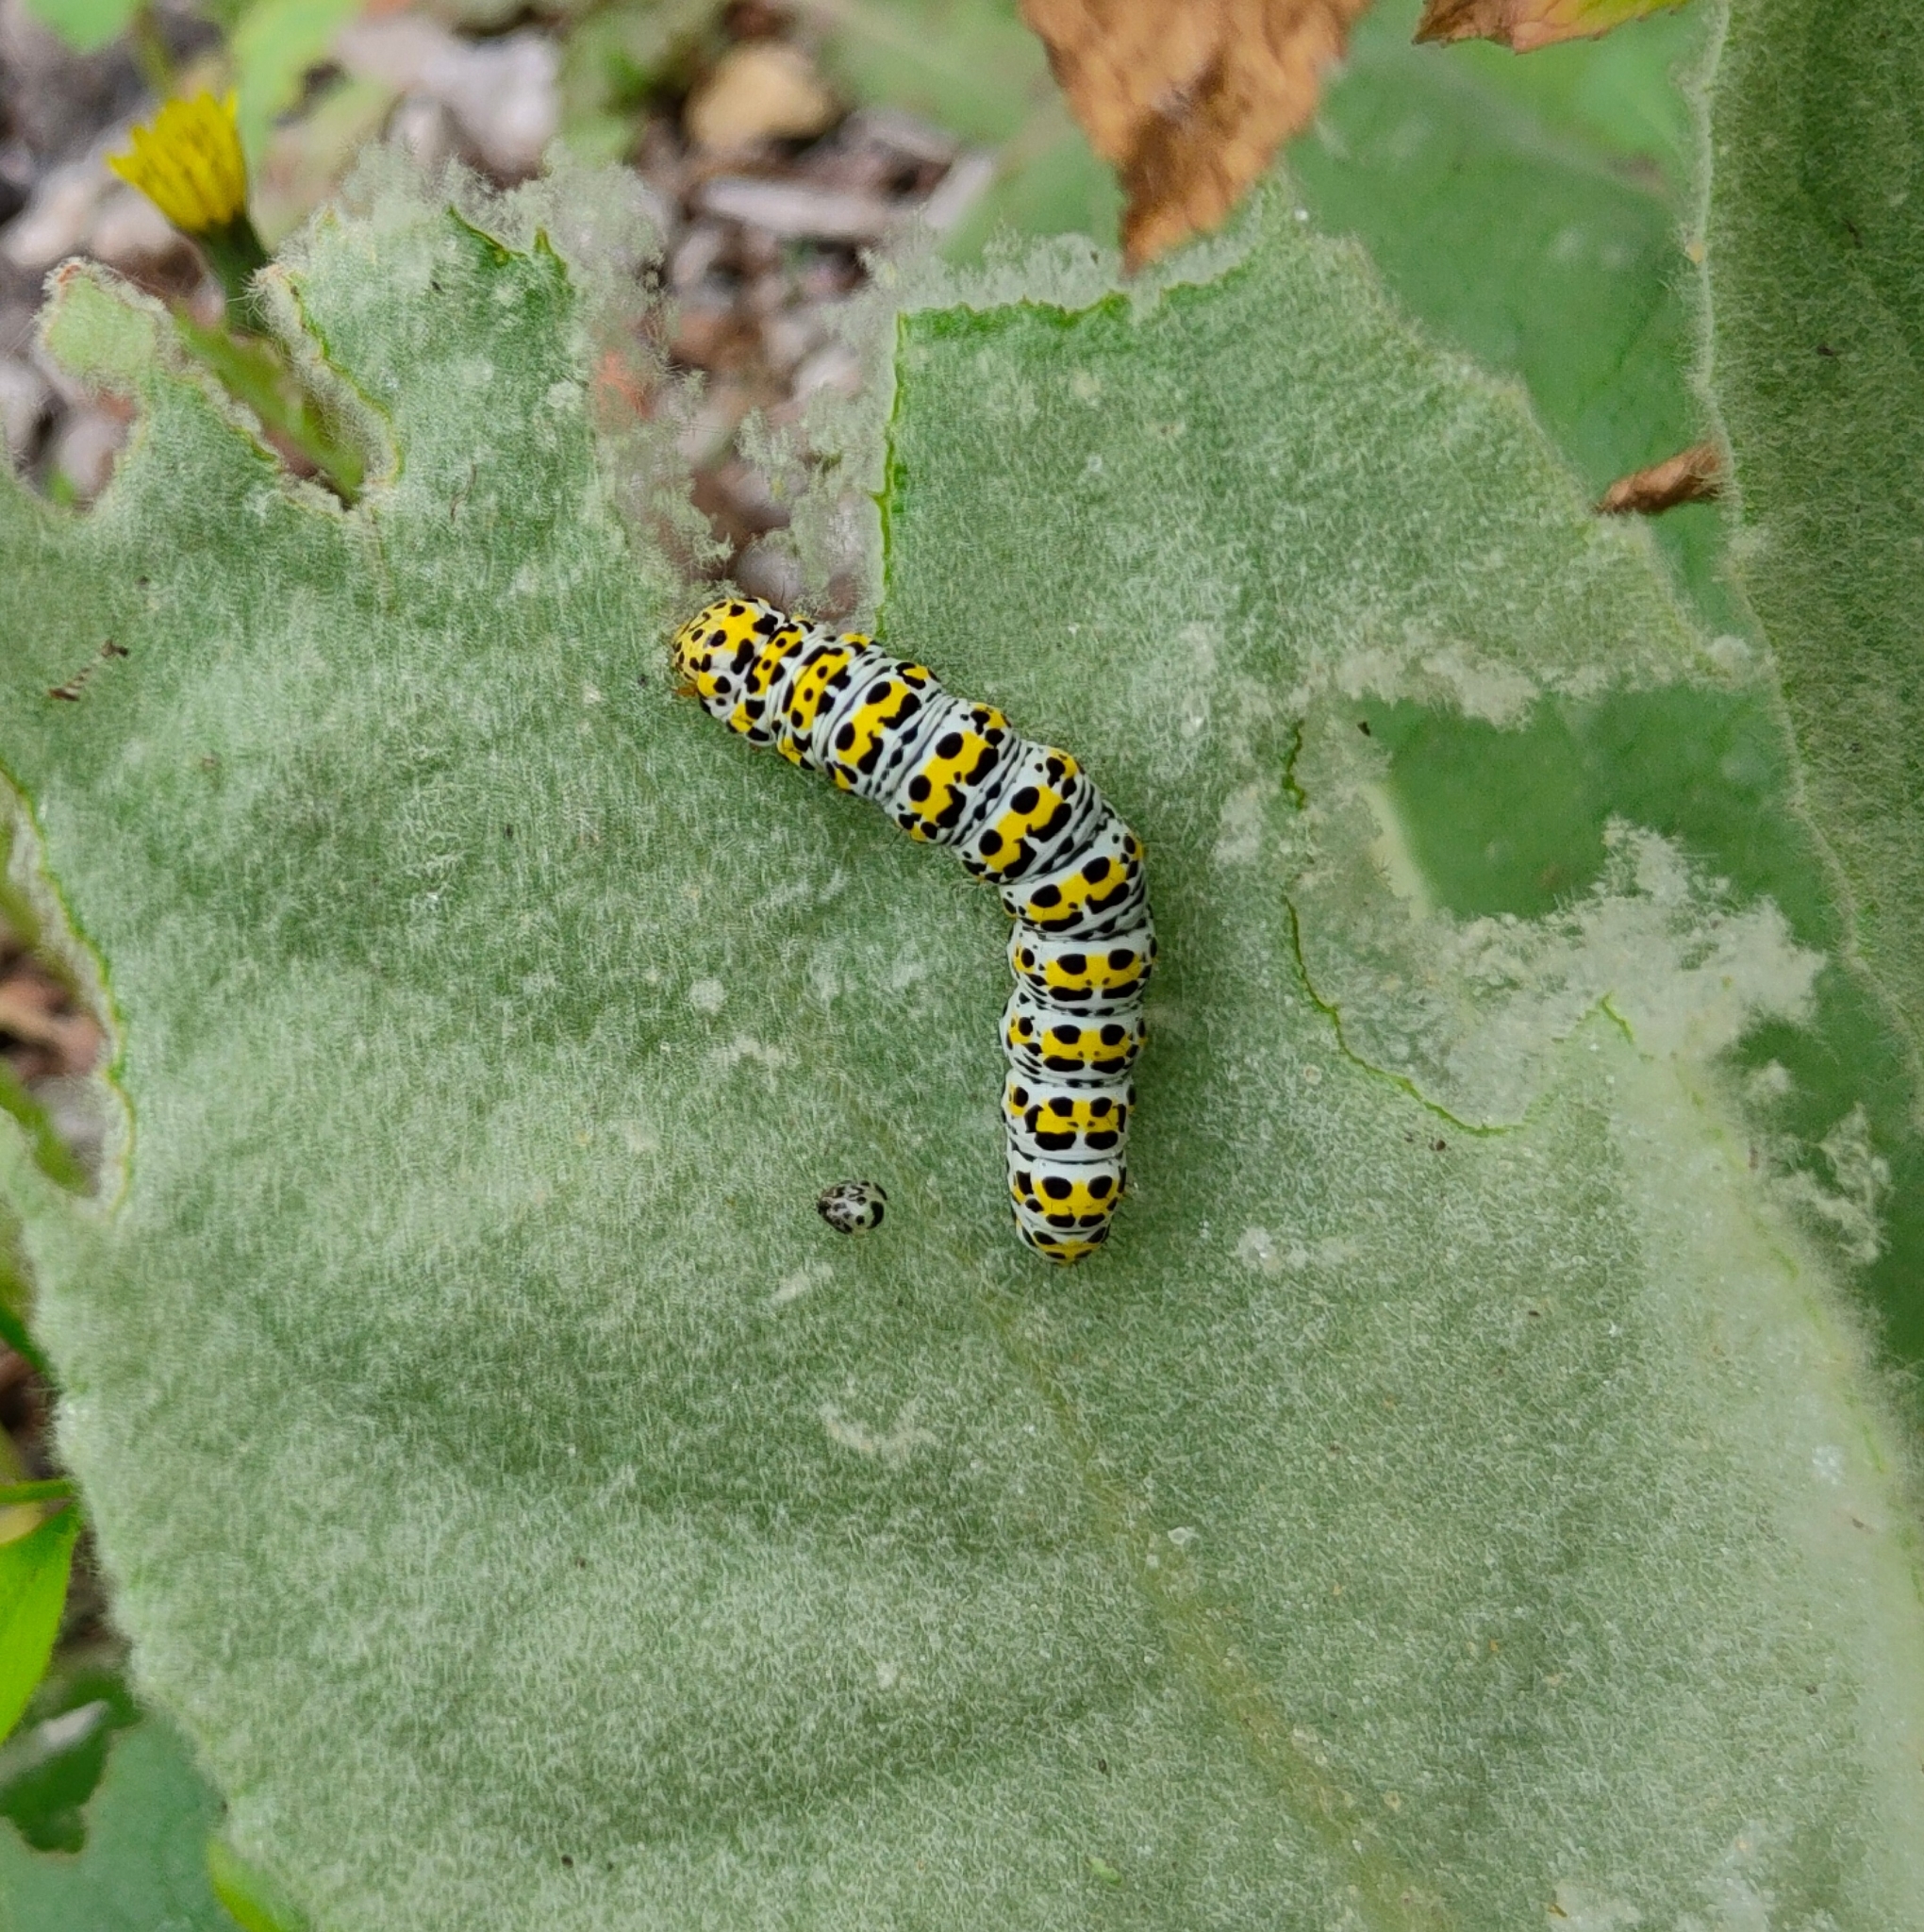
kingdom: Animalia
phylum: Arthropoda
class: Insecta
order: Lepidoptera
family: Noctuidae
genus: Cucullia
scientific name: Cucullia verbasci
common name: Mullein
